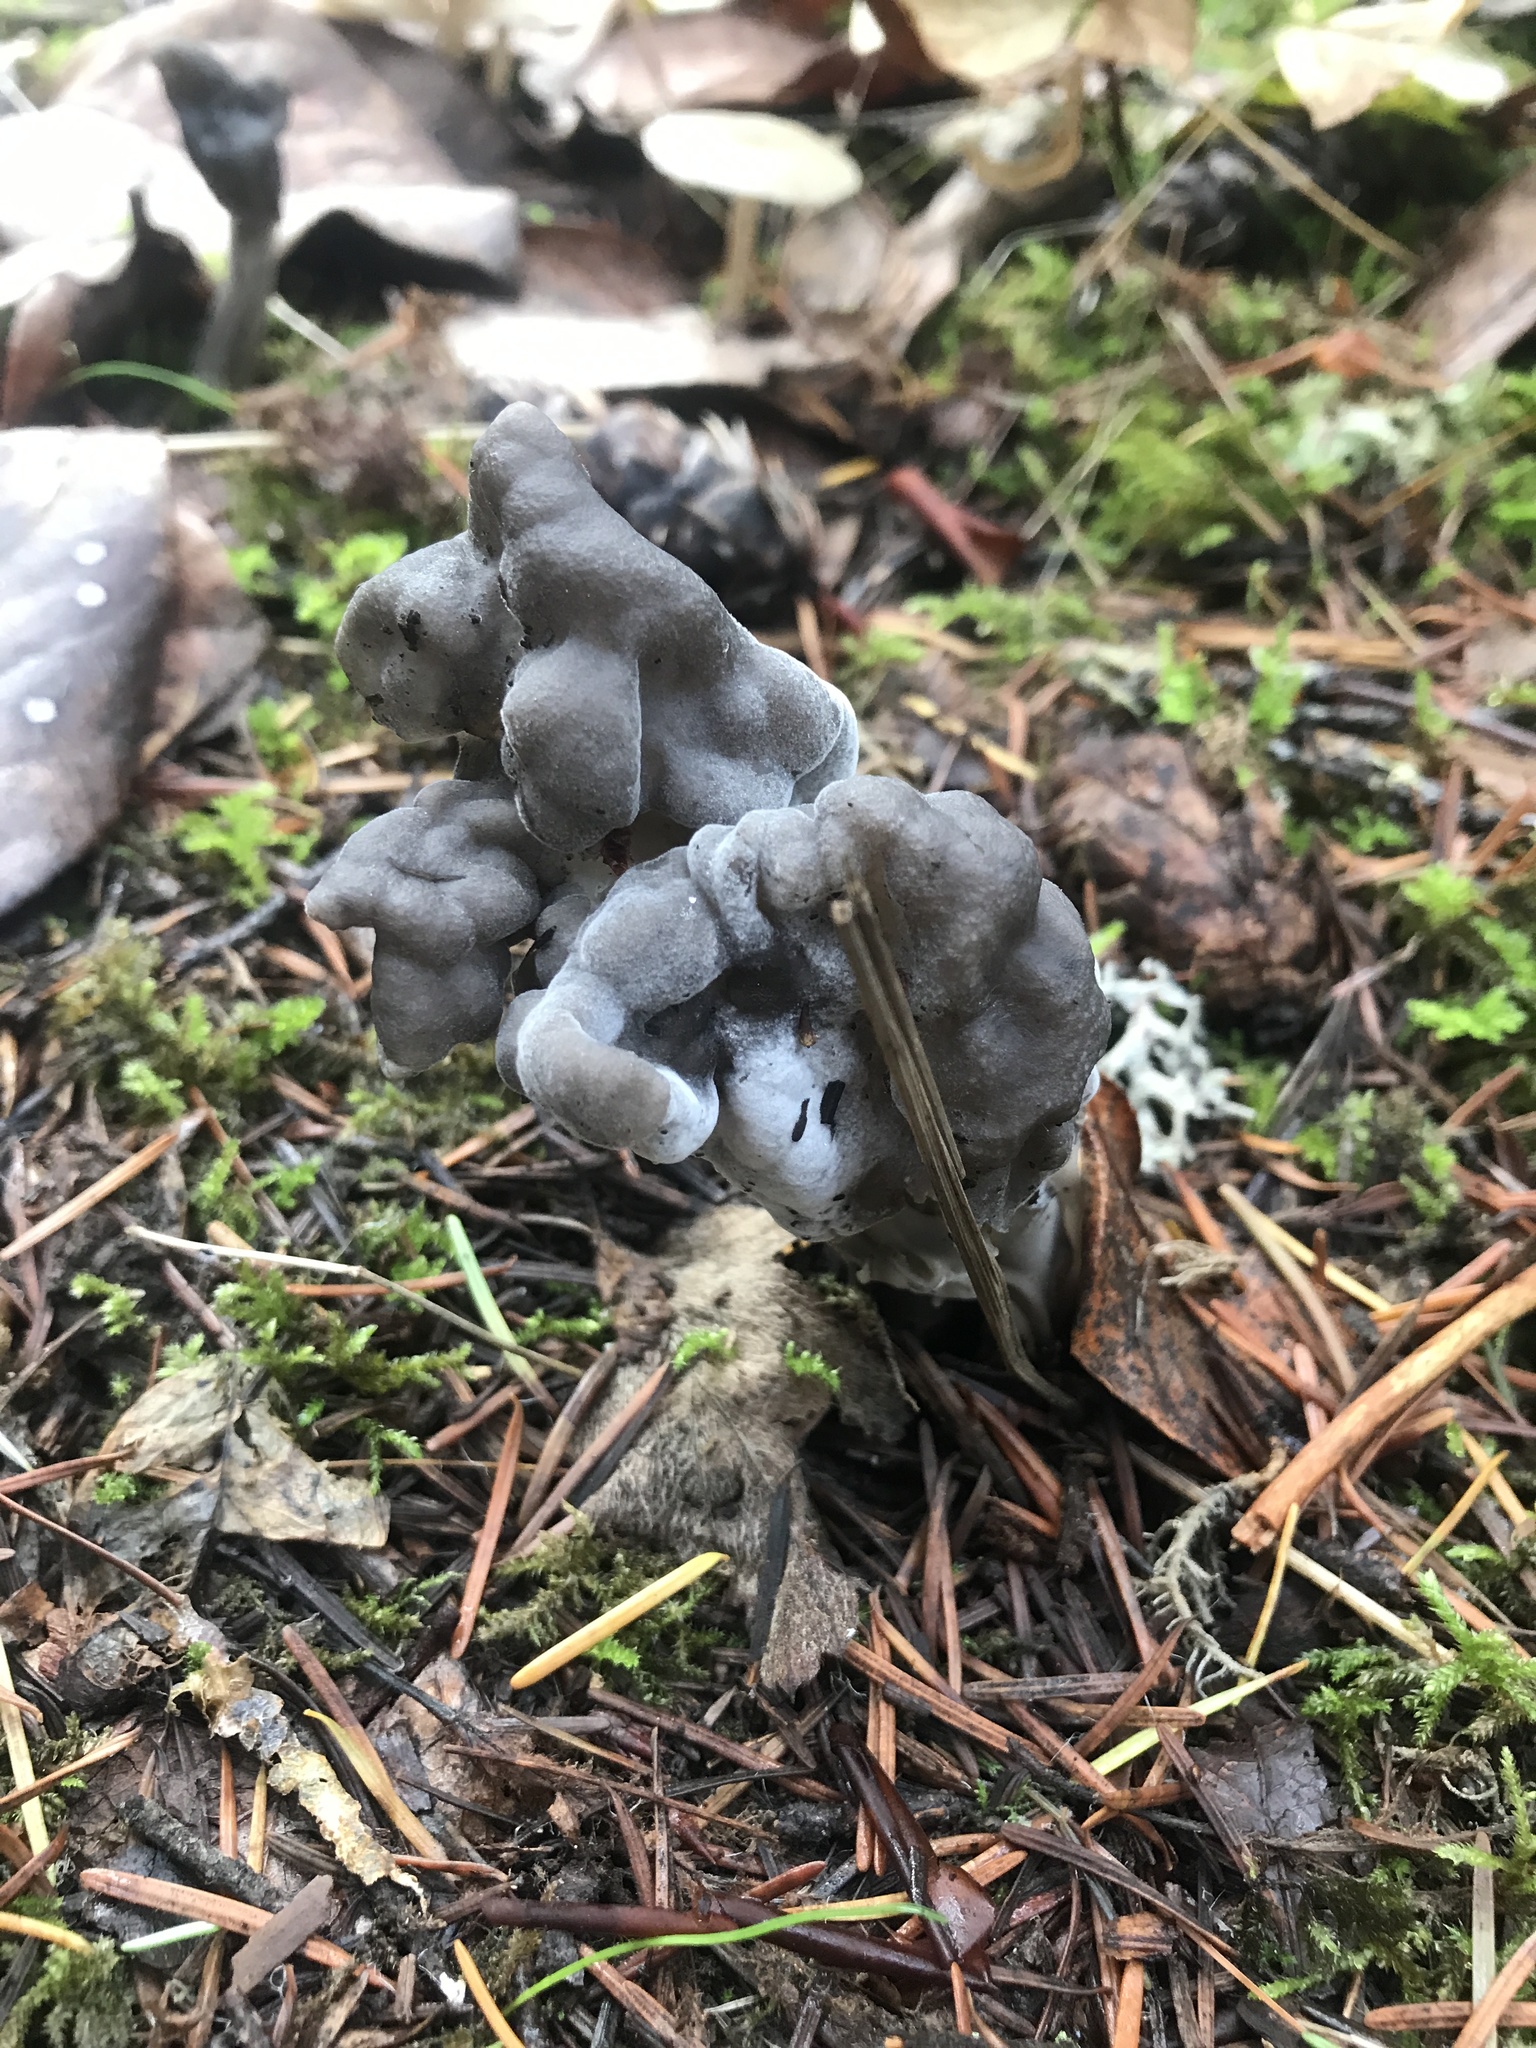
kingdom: Fungi
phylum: Ascomycota
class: Pezizomycetes
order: Pezizales
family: Helvellaceae
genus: Helvella
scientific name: Helvella vespertina
